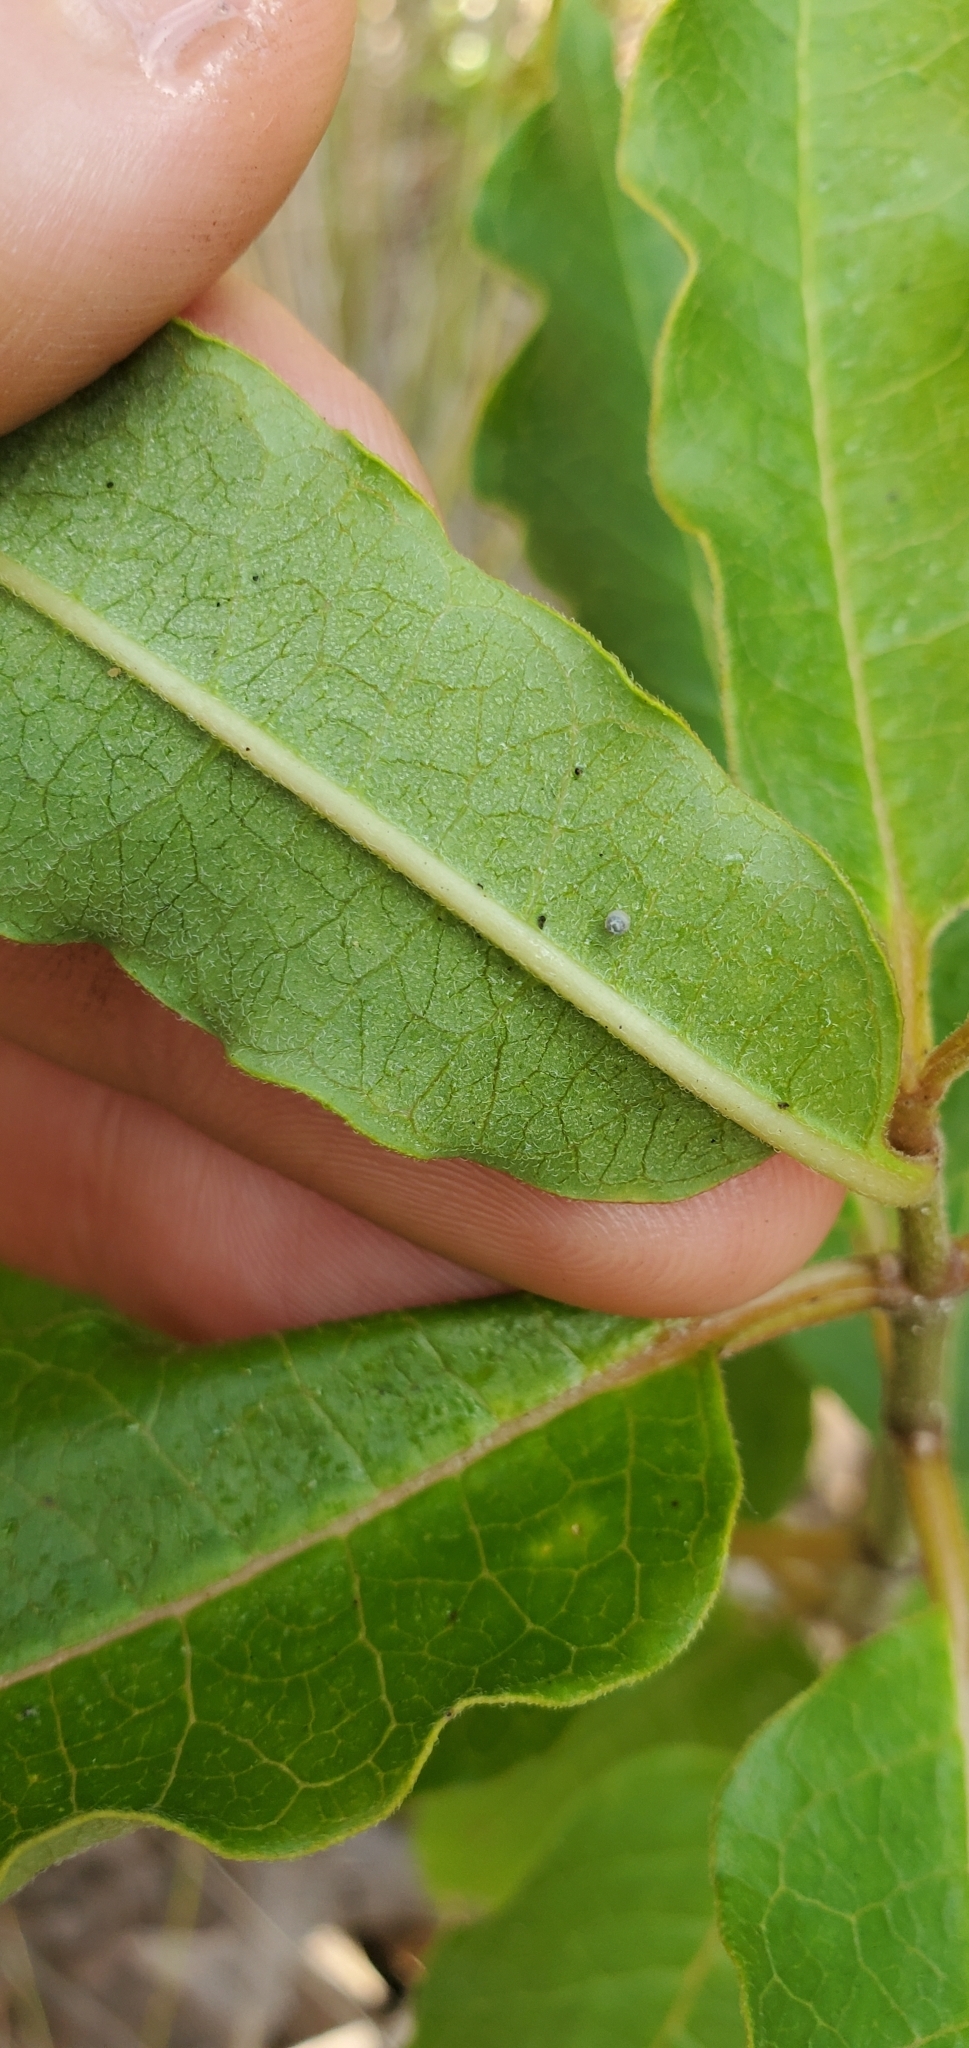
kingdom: Animalia
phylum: Arthropoda
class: Insecta
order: Lepidoptera
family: Nymphalidae
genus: Danaus
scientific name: Danaus plexippus
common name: Monarch
